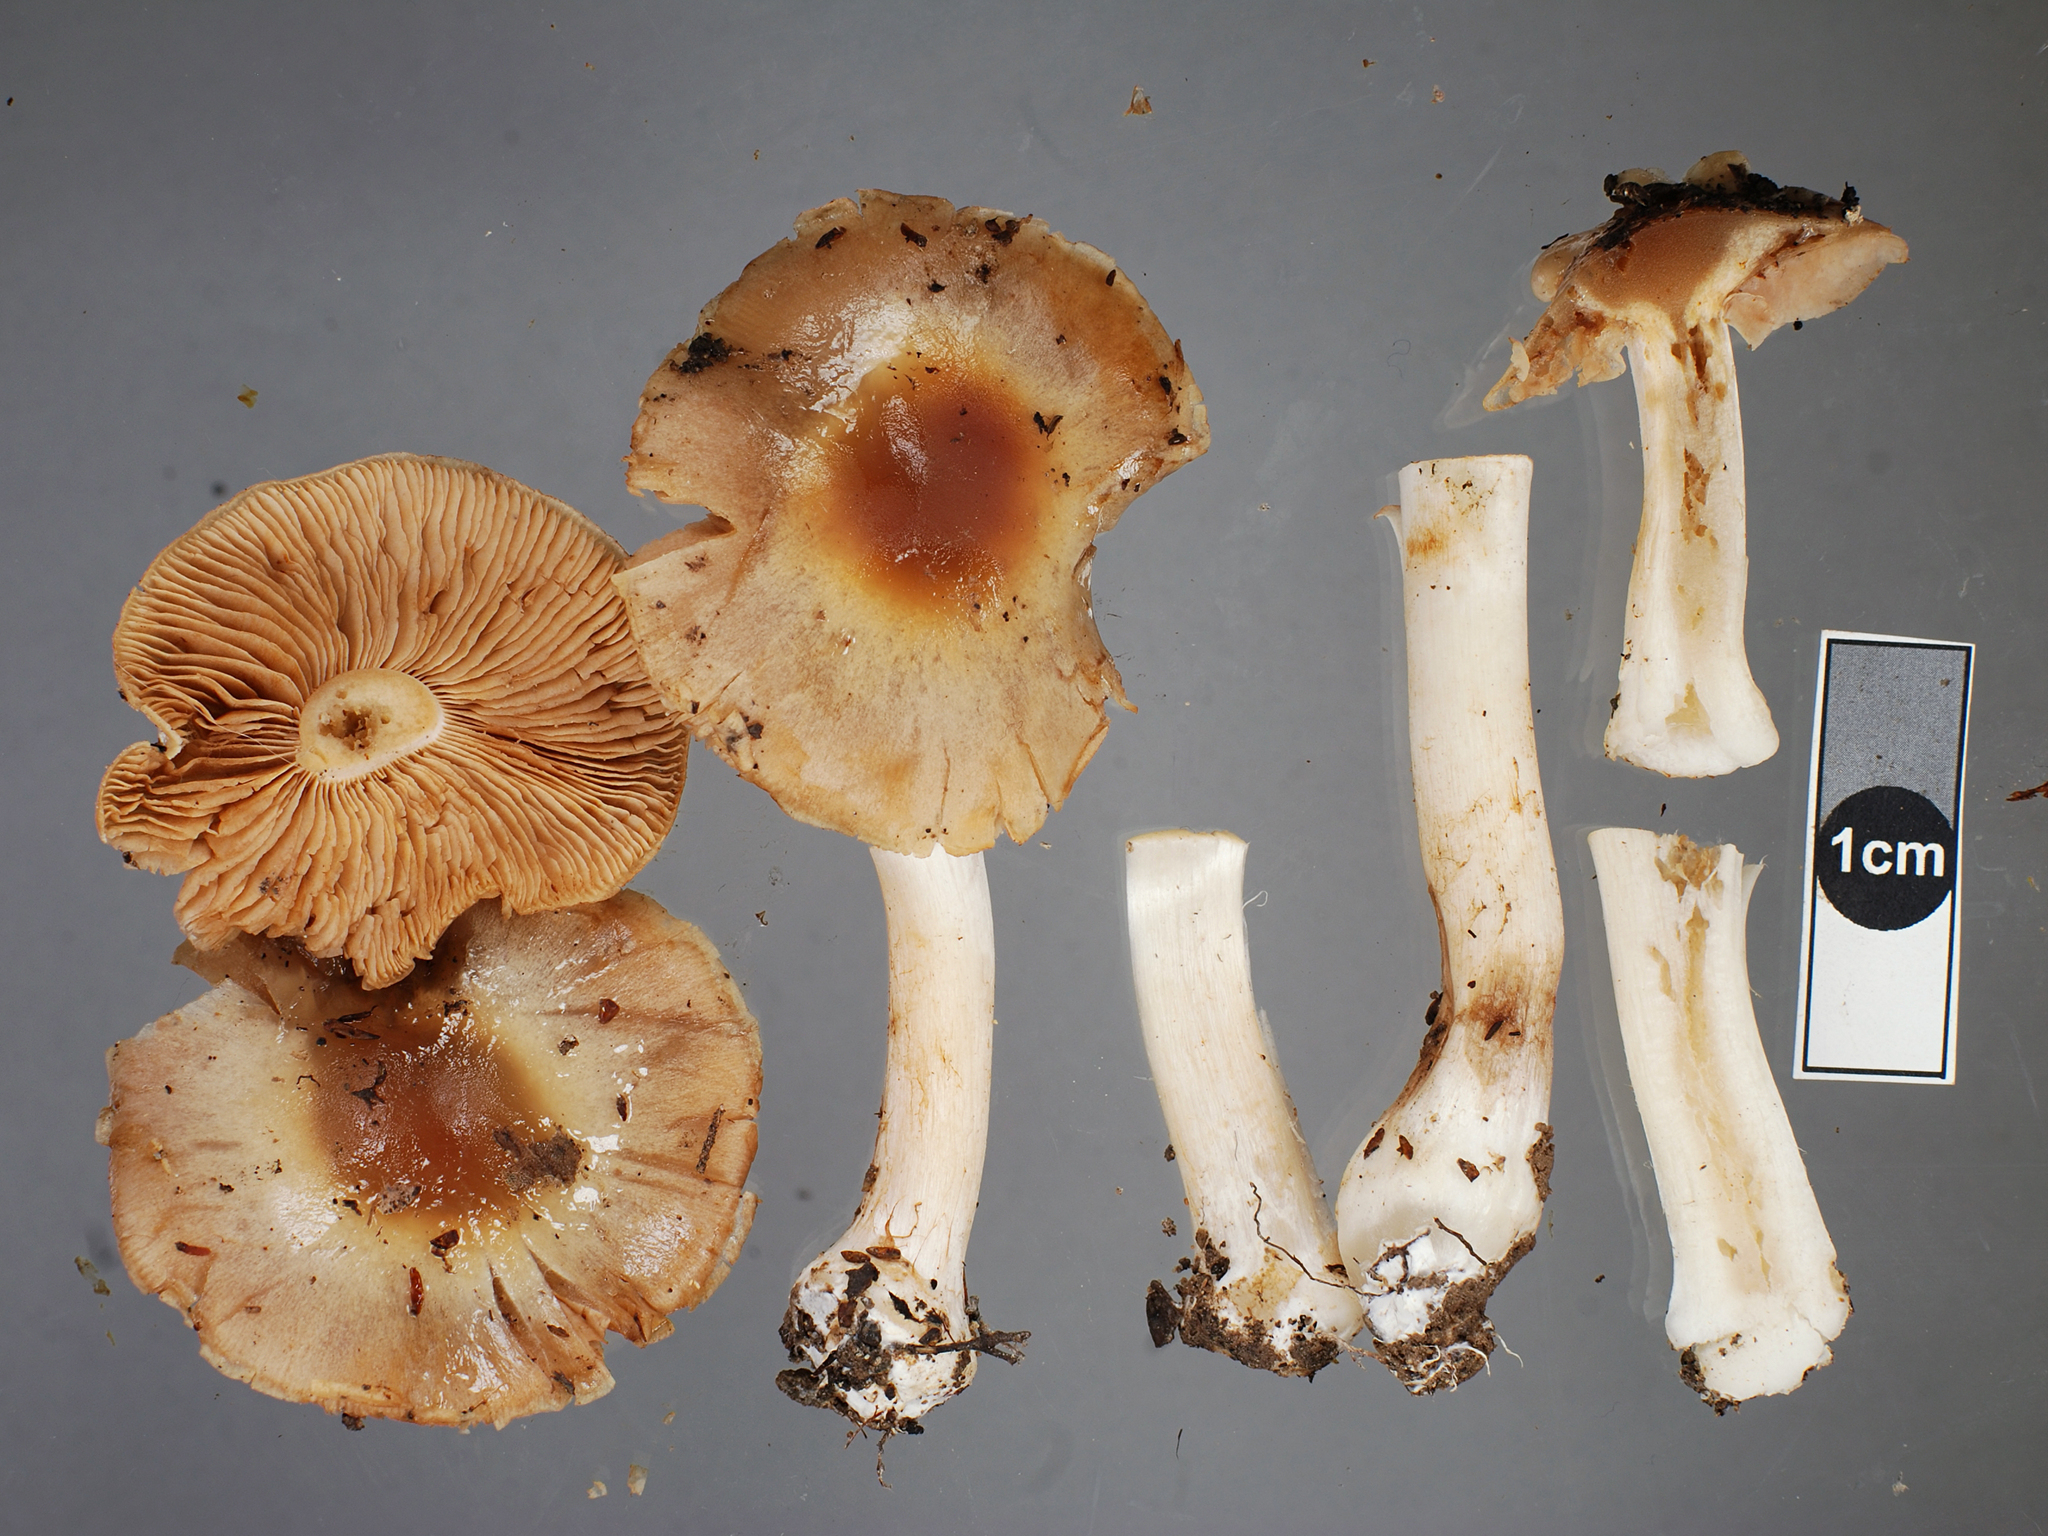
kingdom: Fungi
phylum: Basidiomycota
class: Agaricomycetes
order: Agaricales
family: Cortinariaceae
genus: Thaxterogaster
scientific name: Thaxterogaster cremeolina
